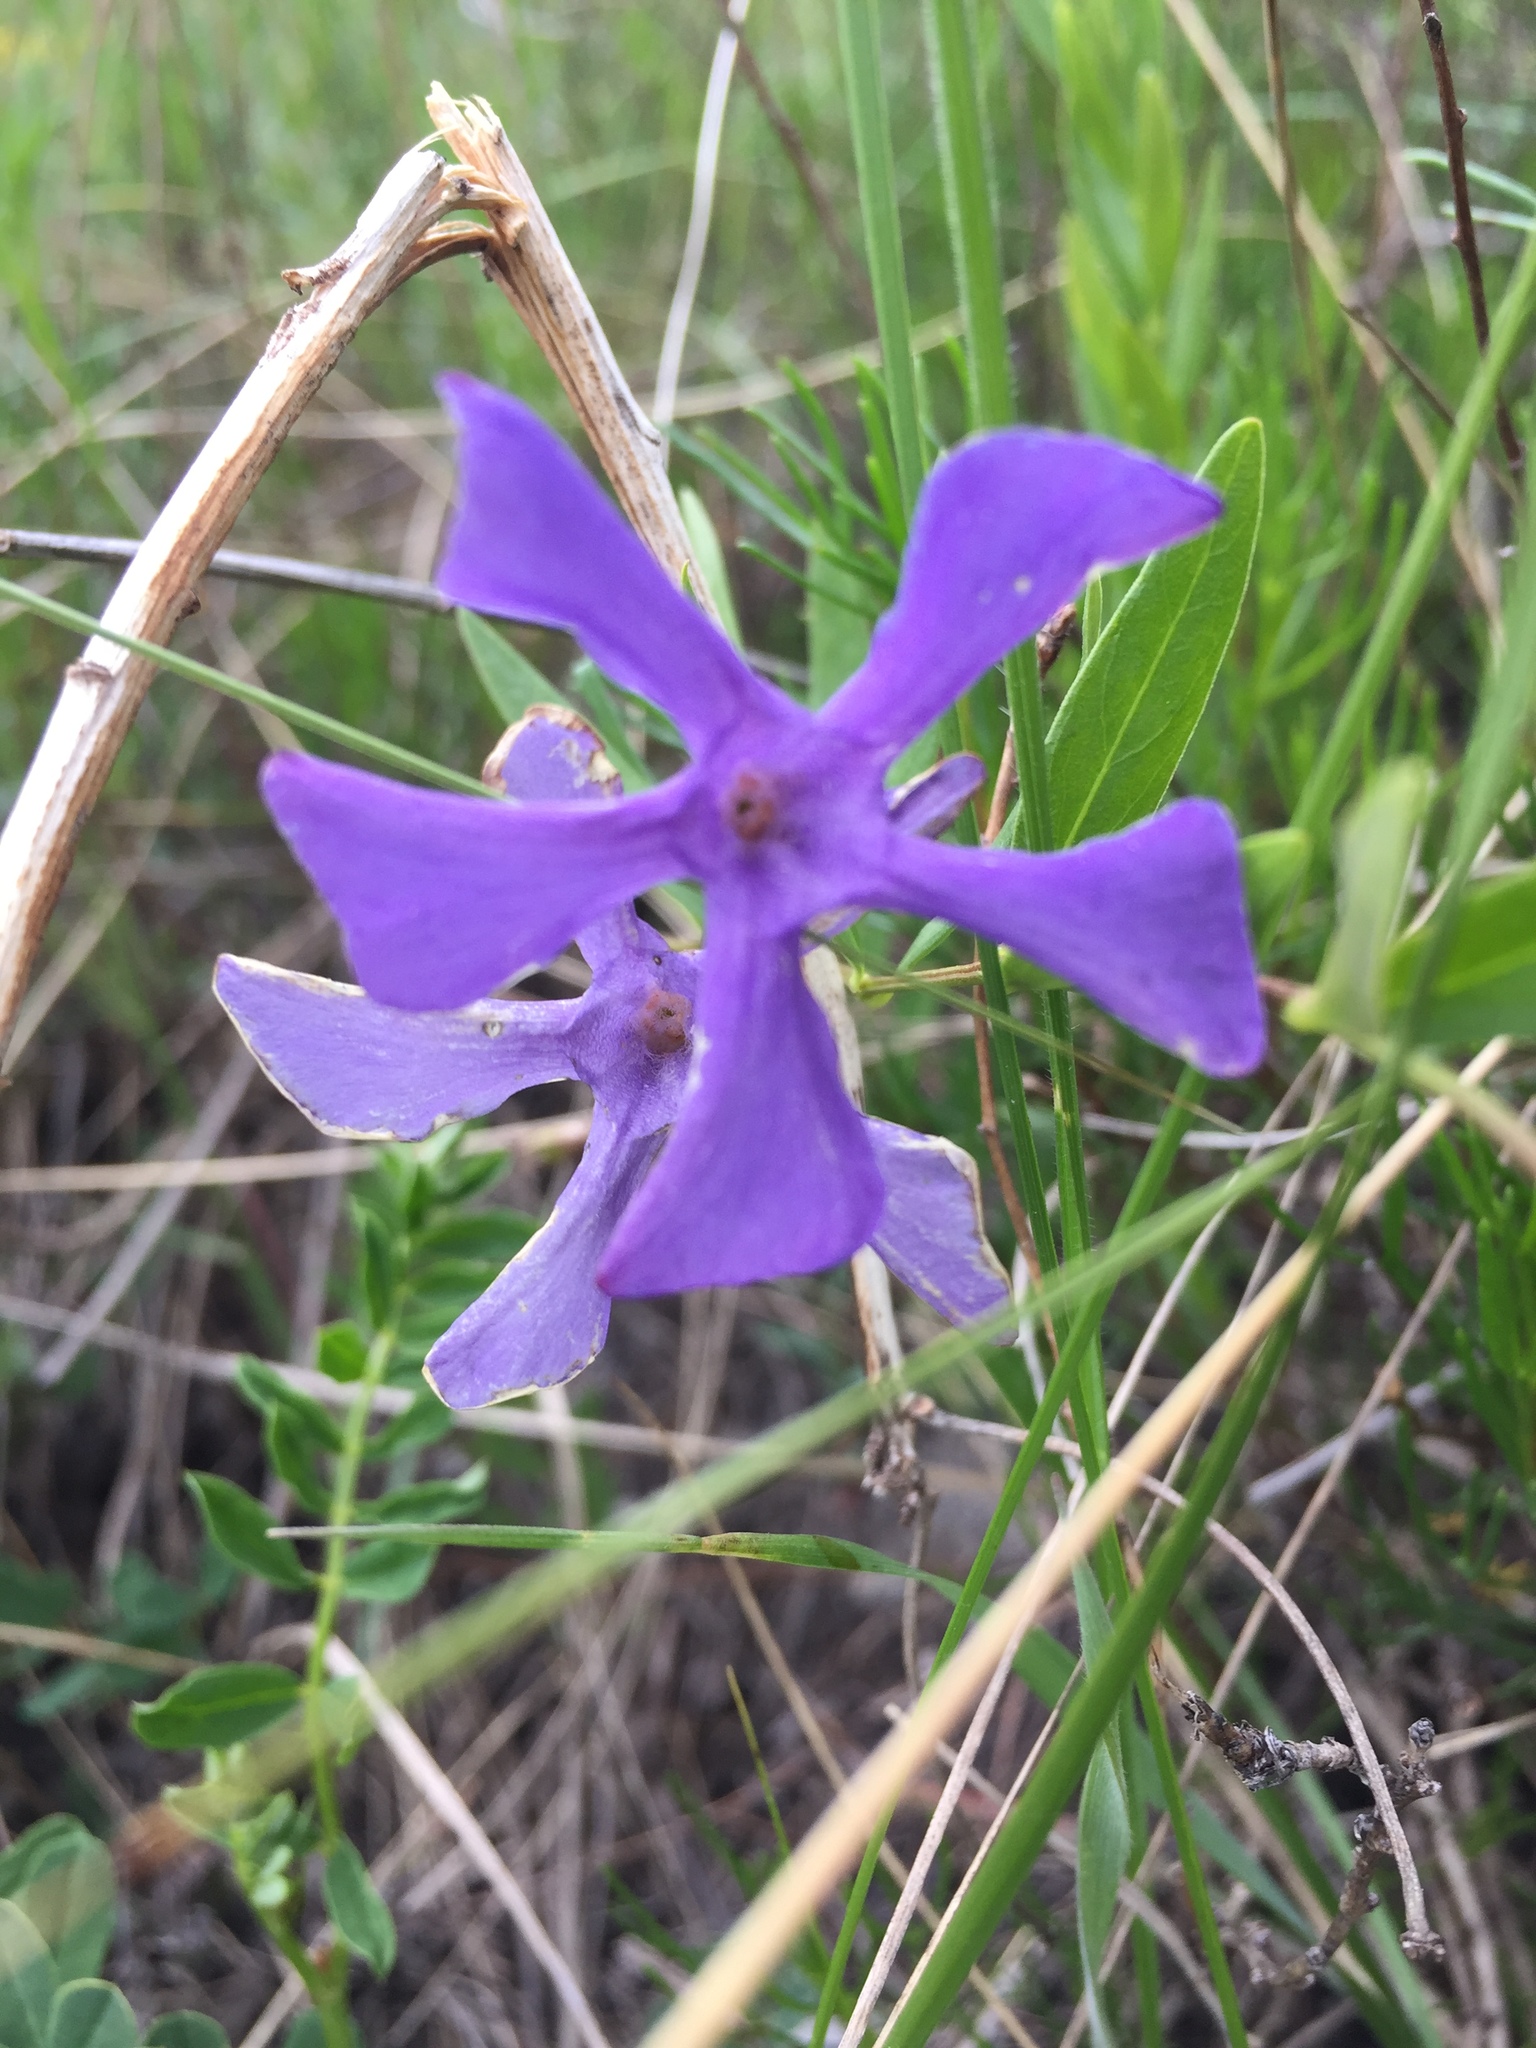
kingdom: Plantae
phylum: Tracheophyta
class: Magnoliopsida
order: Gentianales
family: Apocynaceae
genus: Vinca
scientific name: Vinca herbacea
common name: Herbaceous periwinkle
